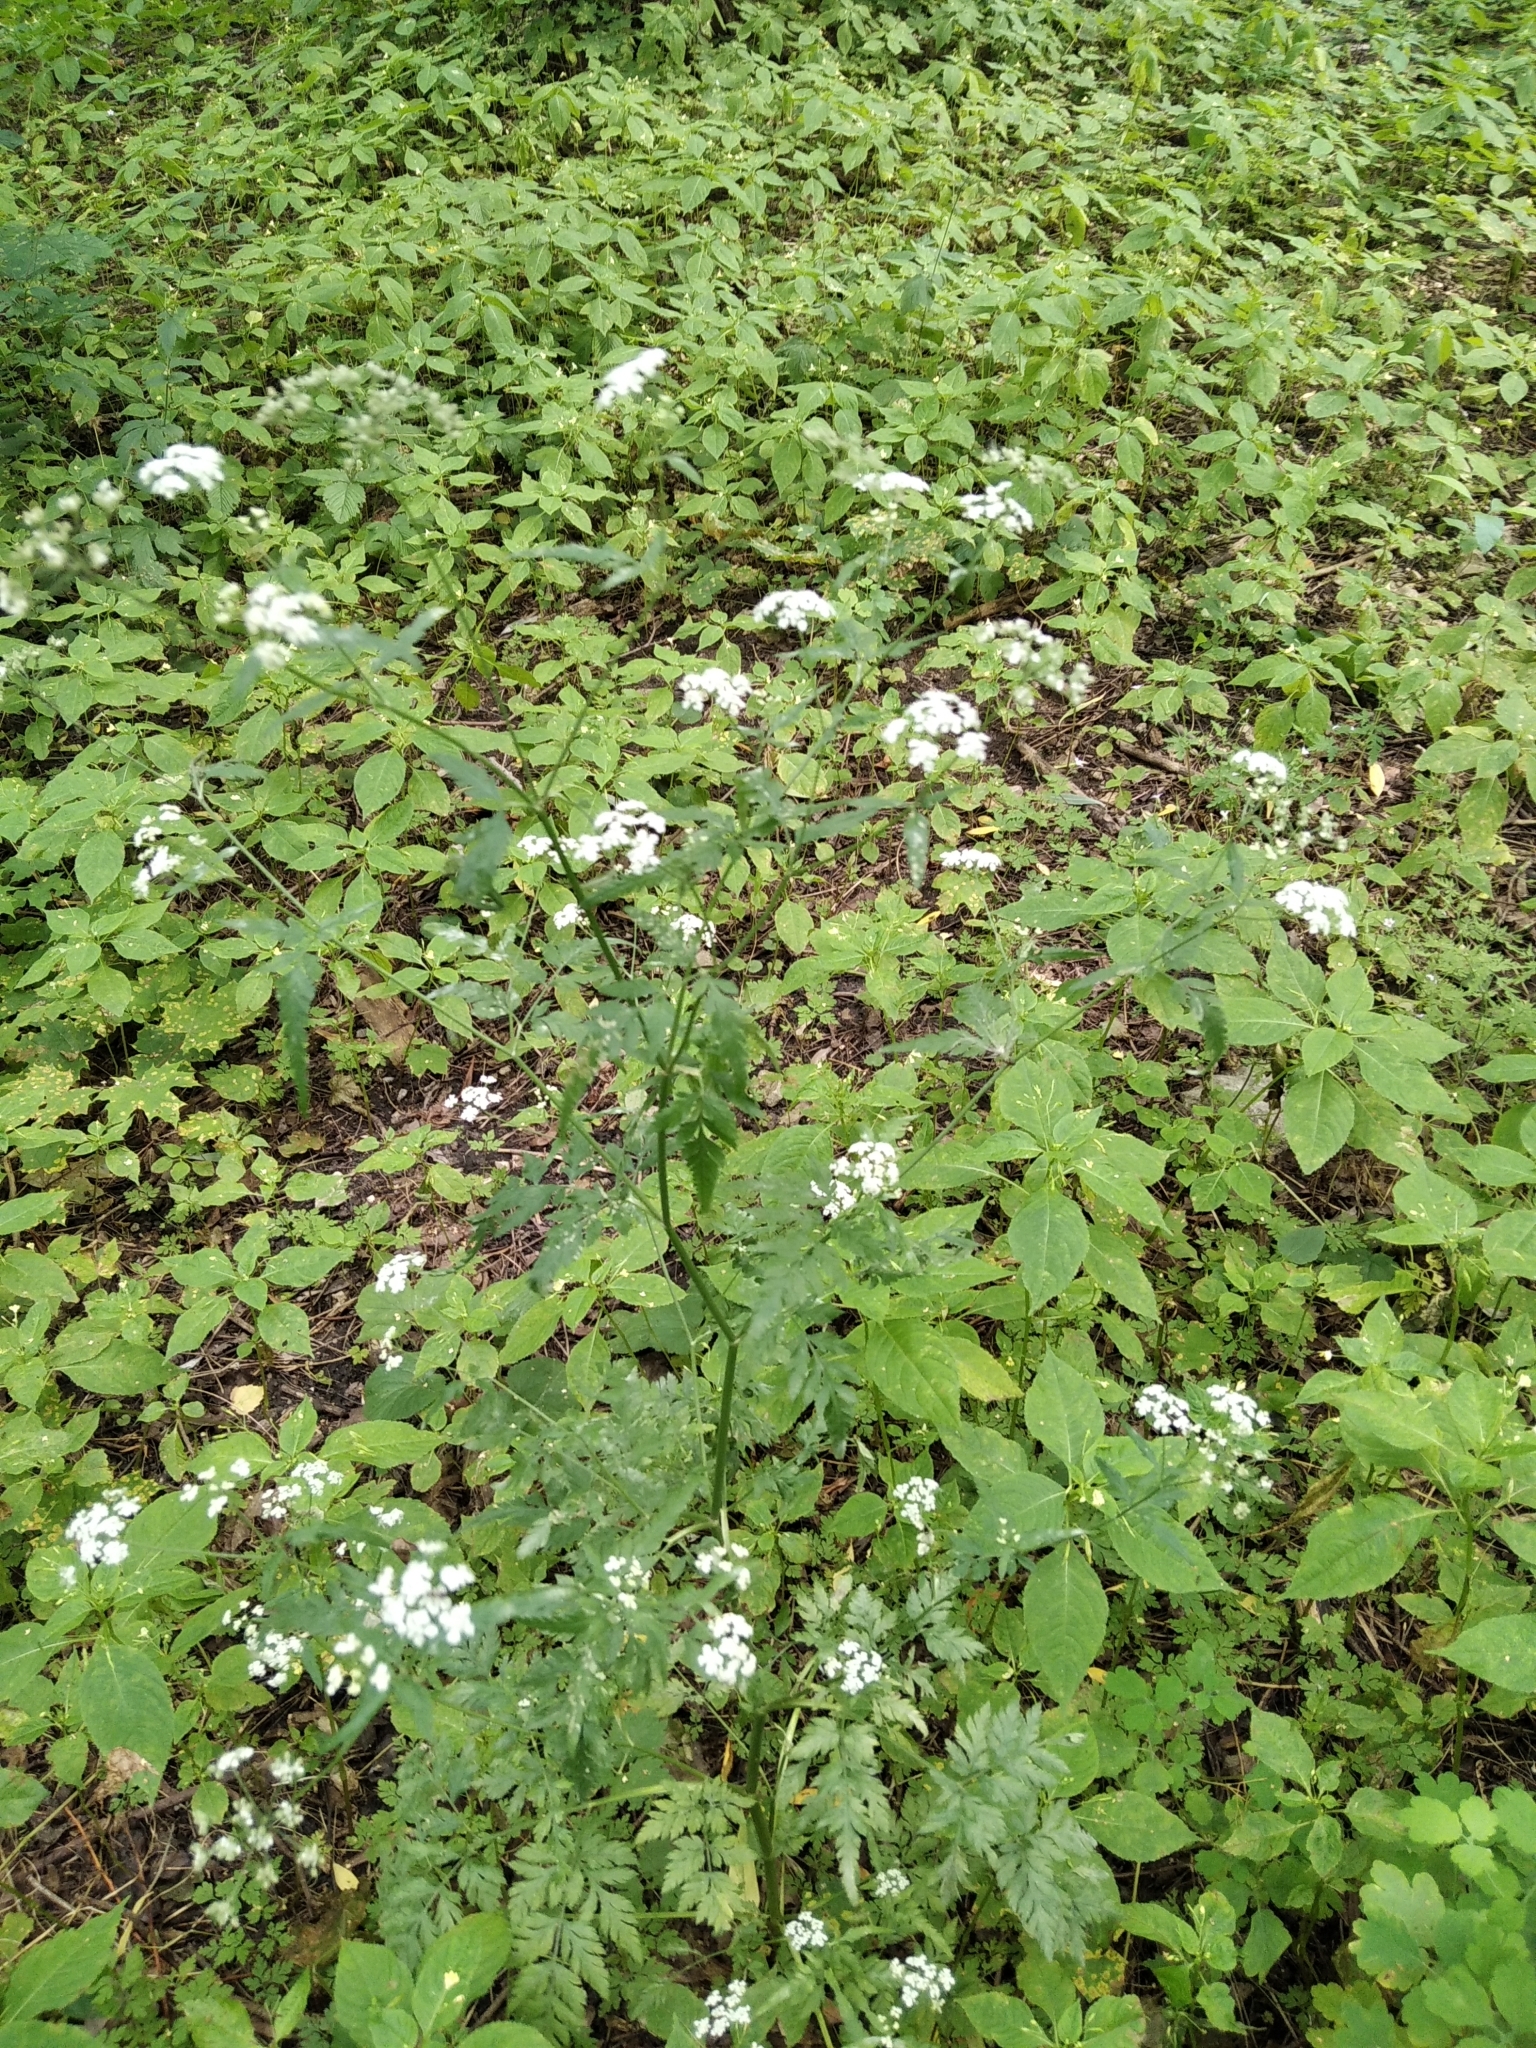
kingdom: Plantae
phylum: Tracheophyta
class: Magnoliopsida
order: Apiales
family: Apiaceae
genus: Torilis
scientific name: Torilis japonica
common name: Upright hedge-parsley
